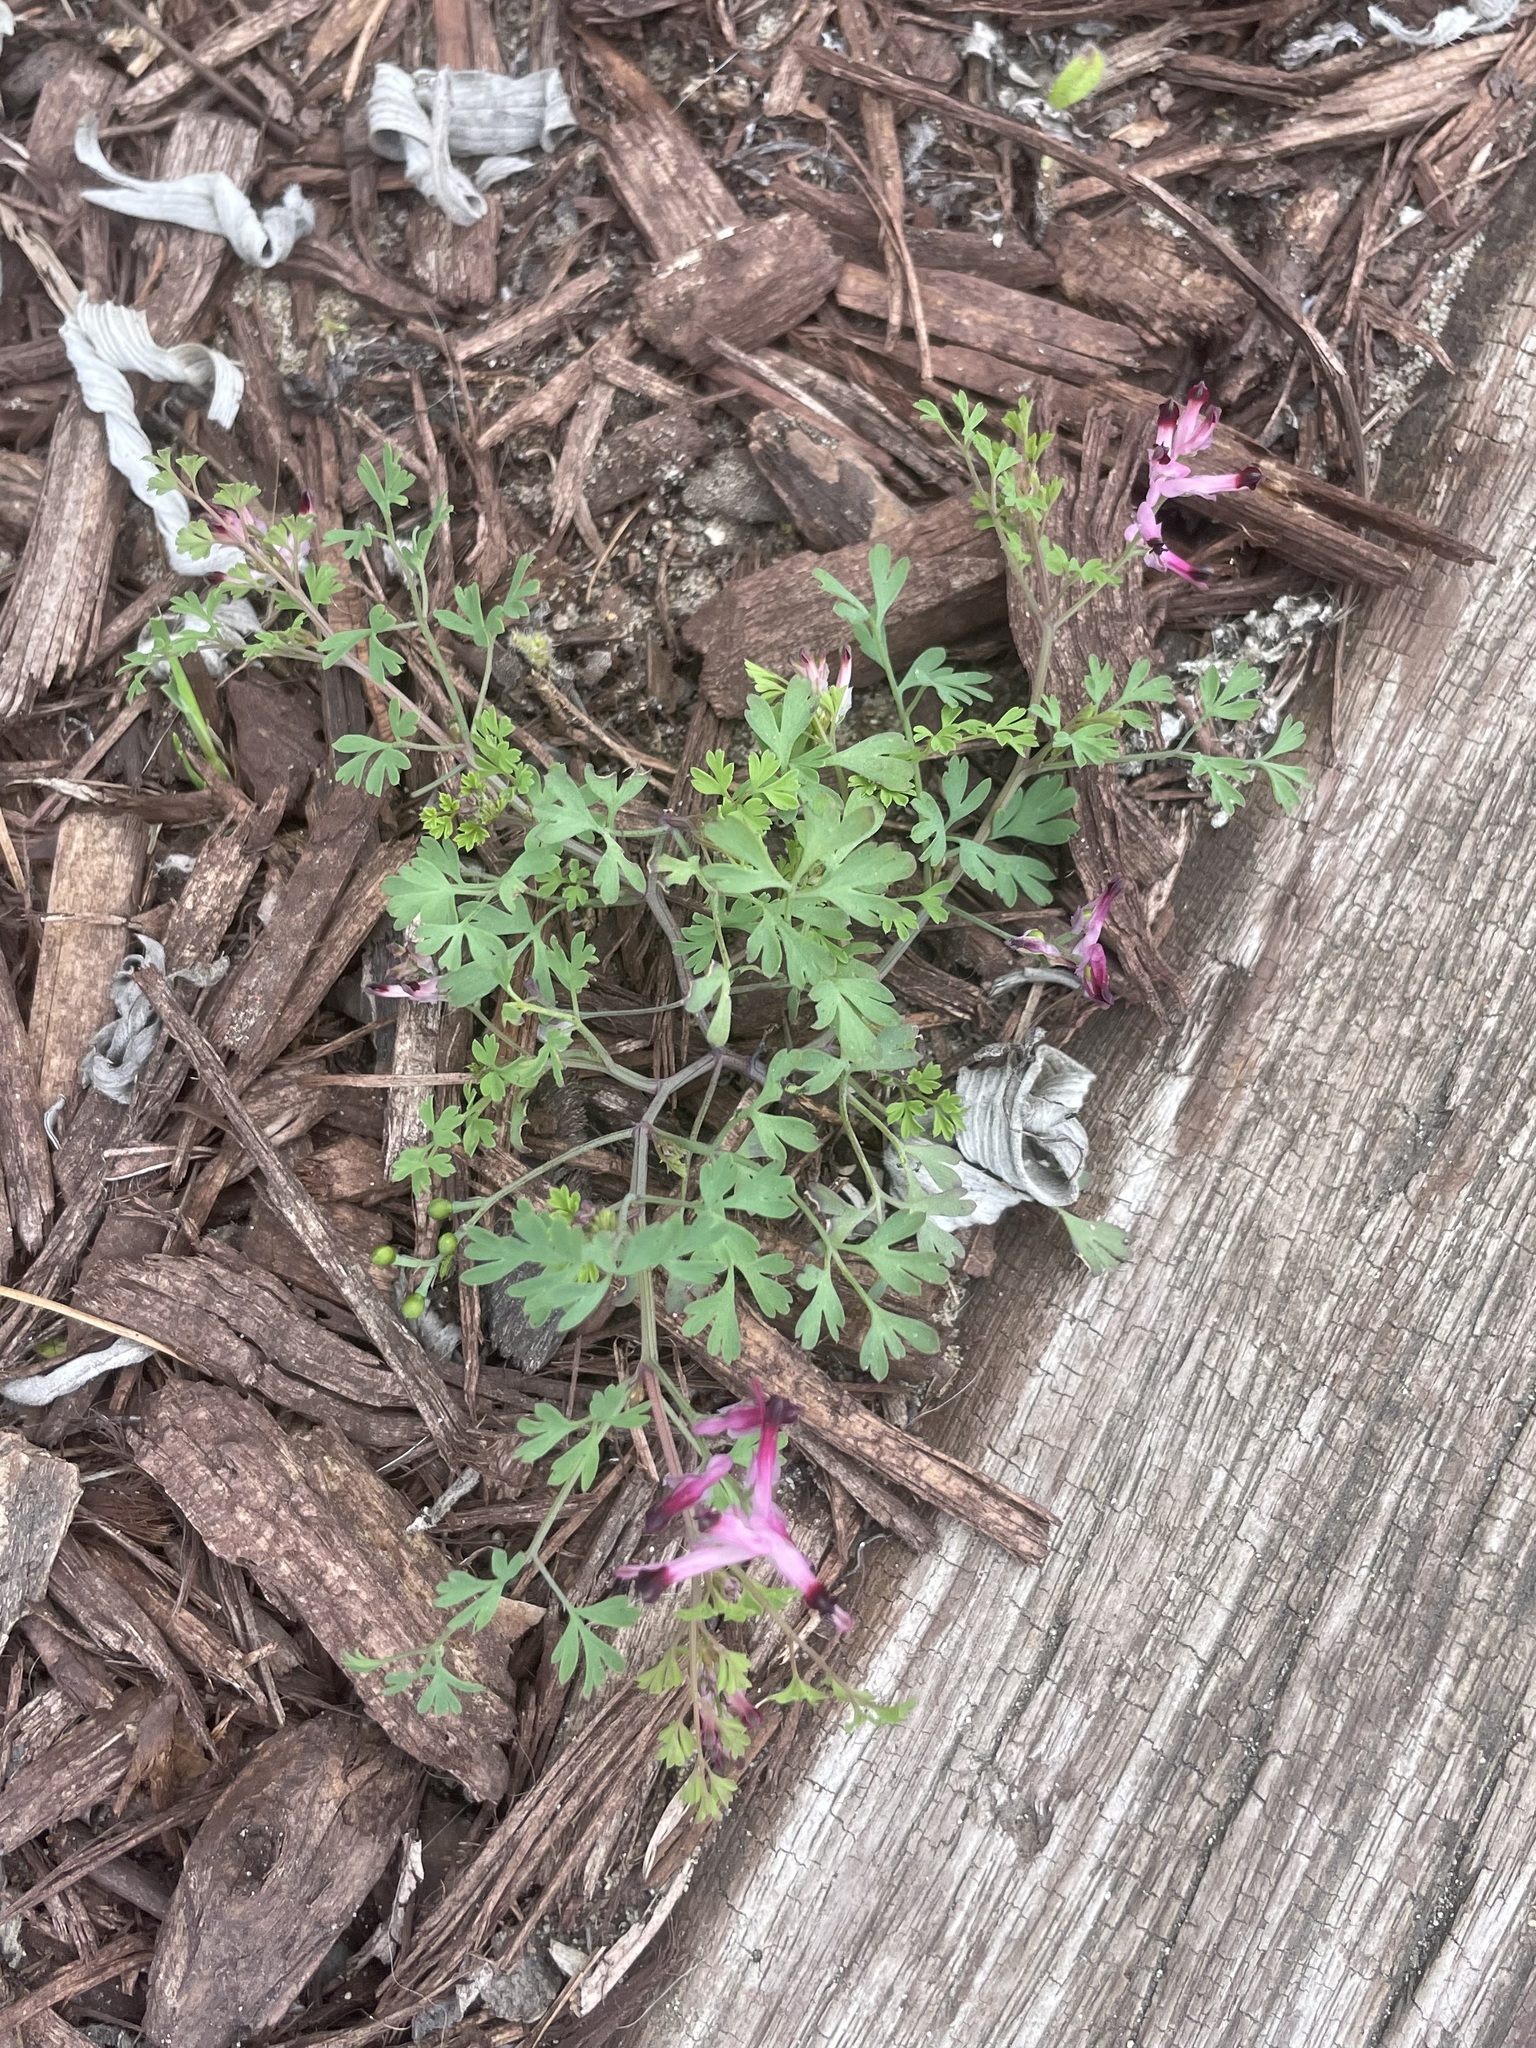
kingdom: Plantae
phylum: Tracheophyta
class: Magnoliopsida
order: Ranunculales
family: Papaveraceae
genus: Fumaria
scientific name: Fumaria muralis
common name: Common ramping-fumitory
